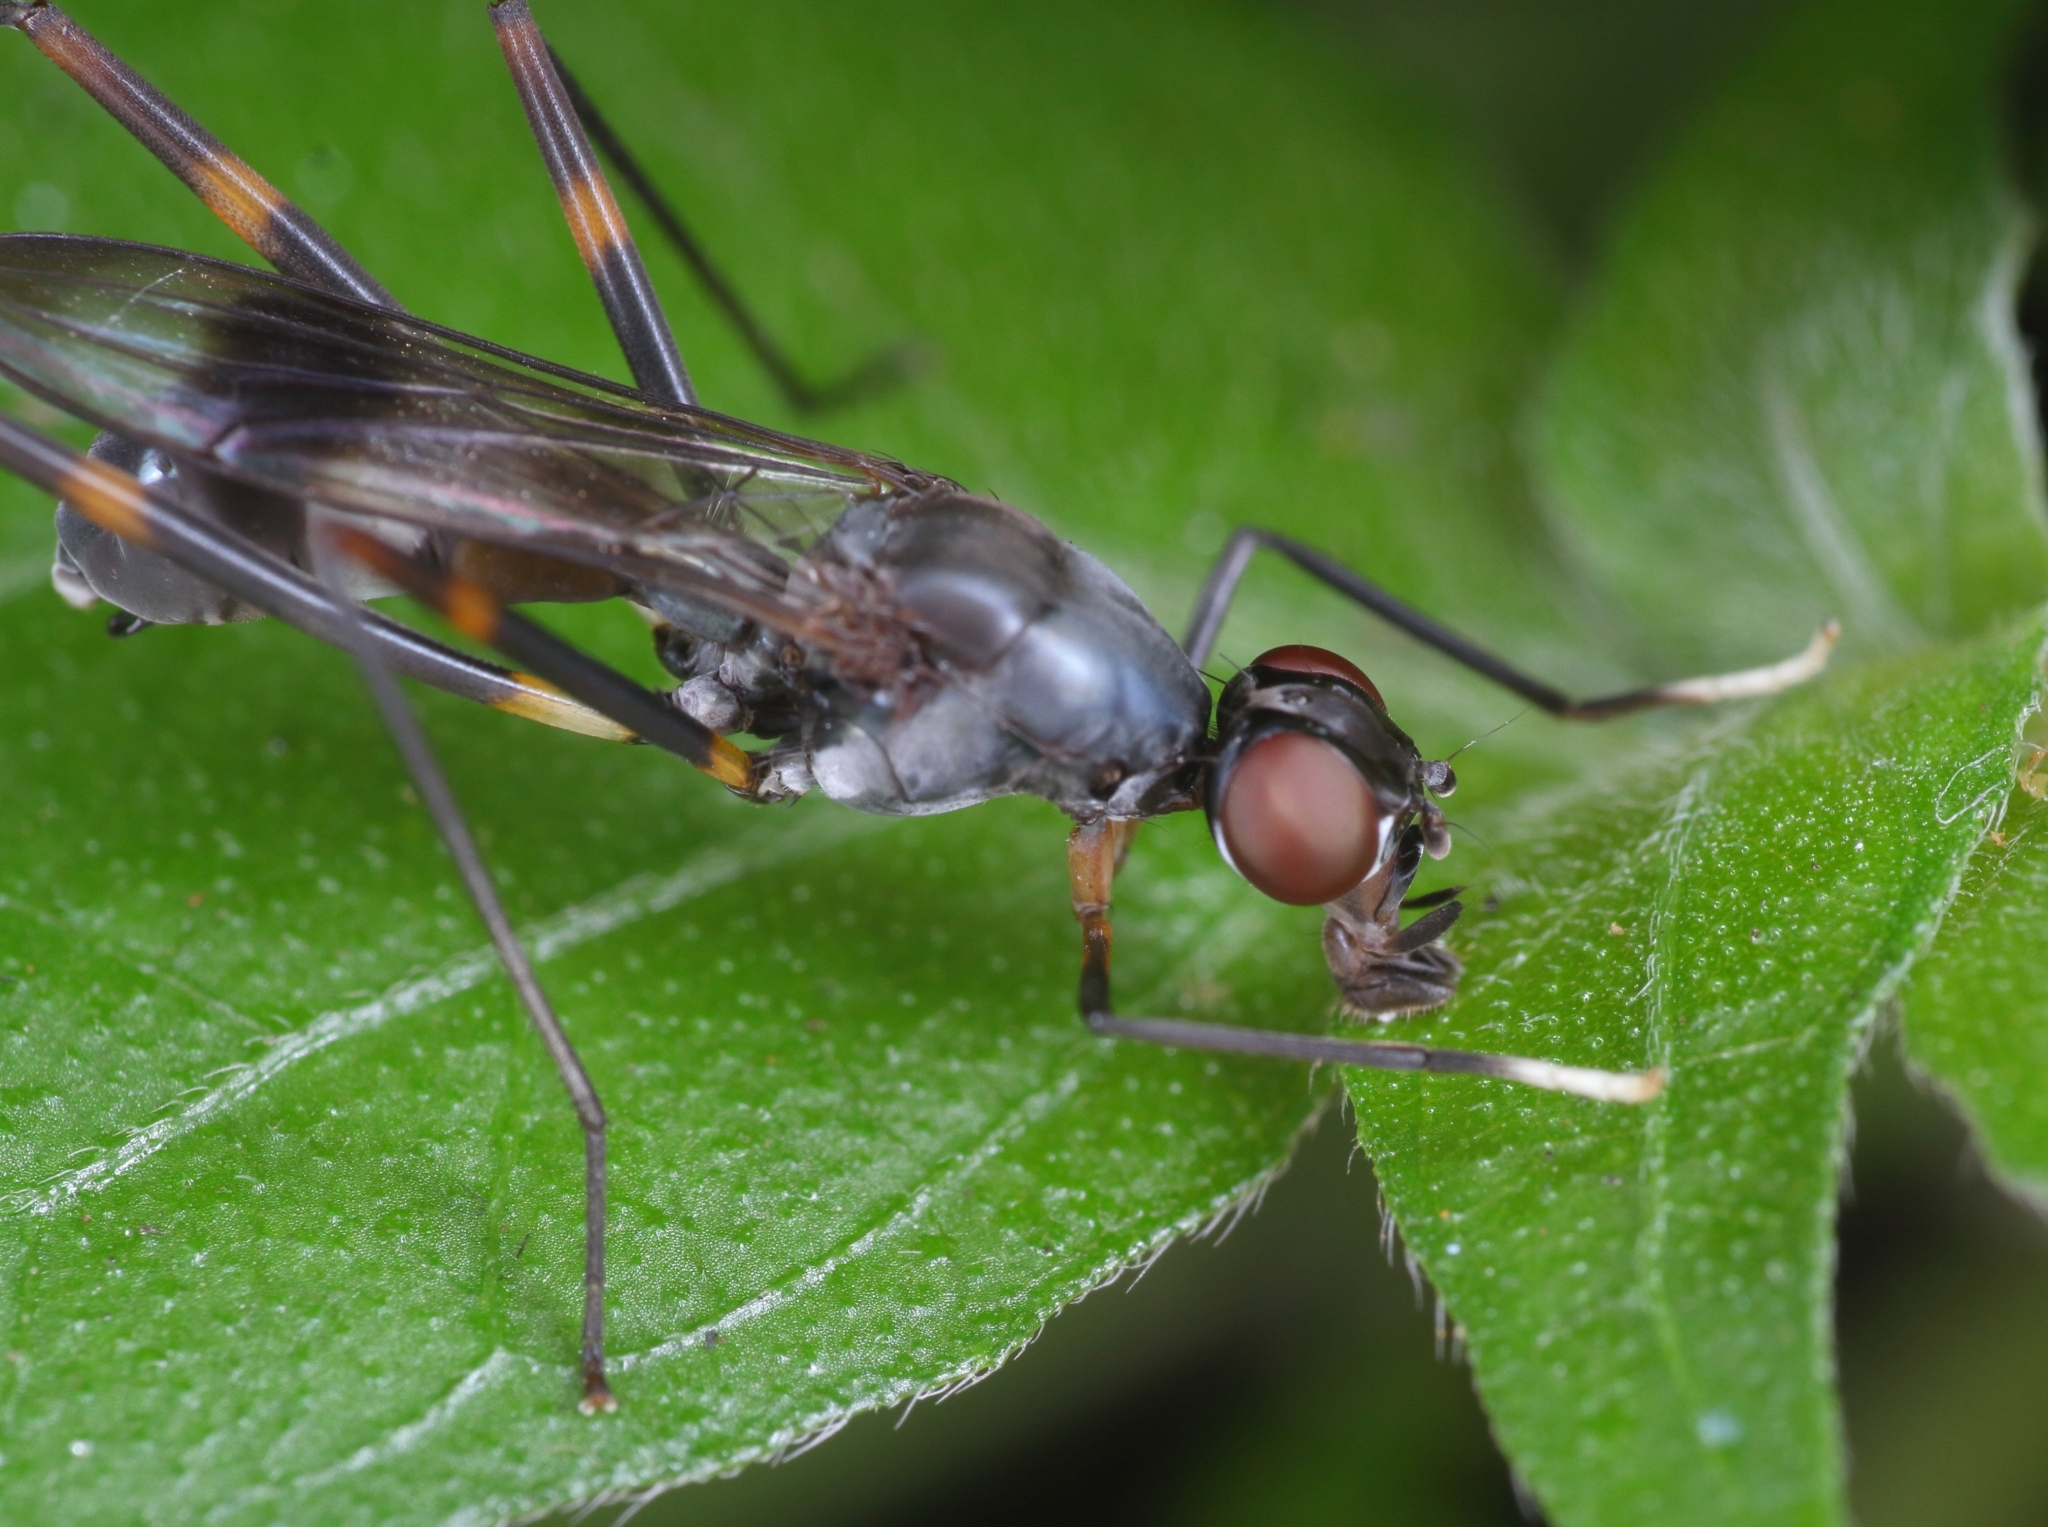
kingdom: Animalia
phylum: Arthropoda
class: Insecta
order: Diptera
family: Micropezidae
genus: Hybobata
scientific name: Hybobata
